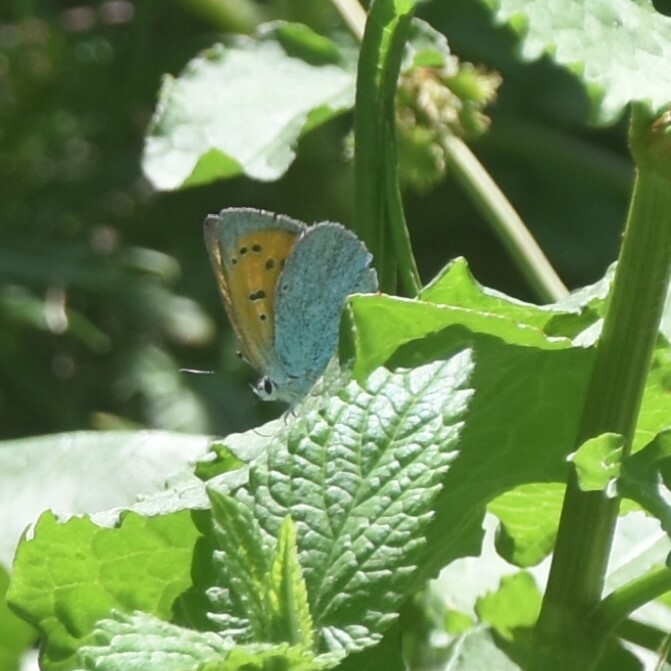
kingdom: Animalia
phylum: Arthropoda
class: Insecta
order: Lepidoptera
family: Lycaenidae
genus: Lycaena
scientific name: Lycaena kasyapa
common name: Green copper
